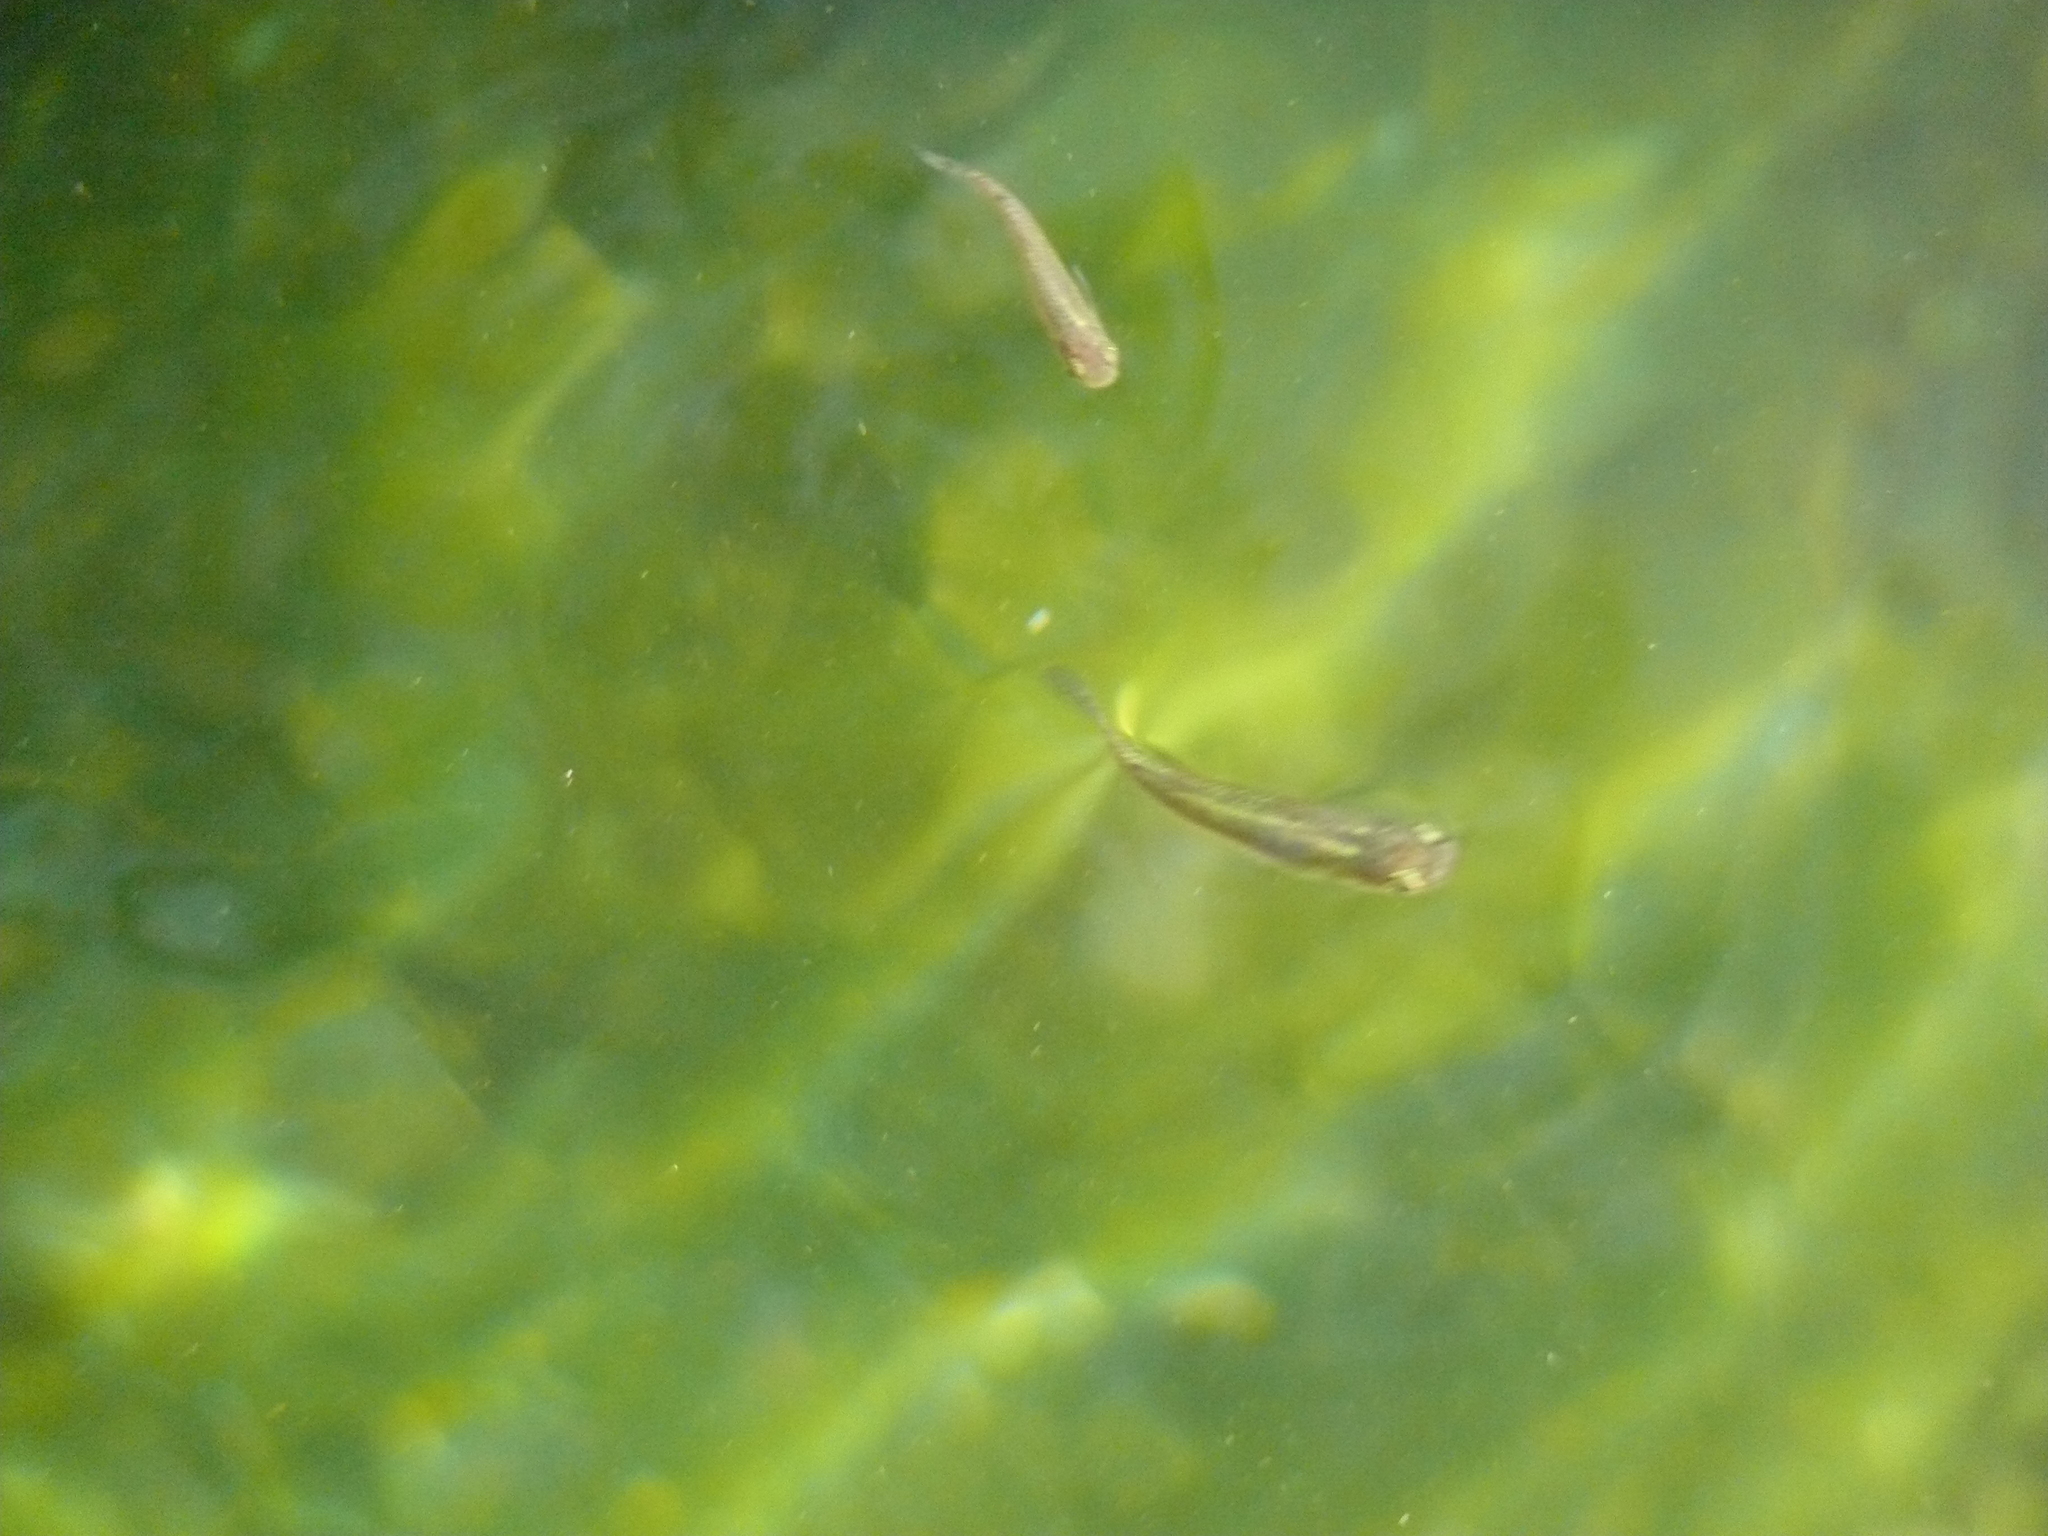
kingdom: Animalia
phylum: Chordata
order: Cyprinodontiformes
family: Poeciliidae
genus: Gambusia
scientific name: Gambusia holbrooki
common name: Eastern mosquitofish
